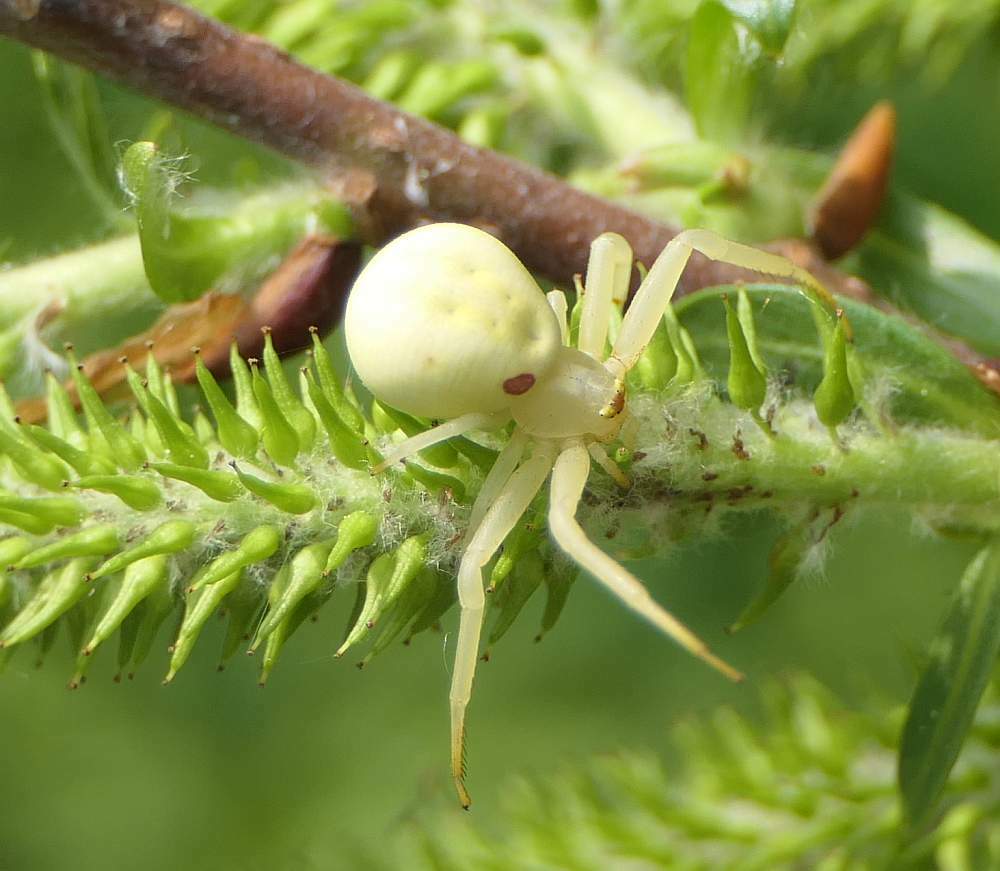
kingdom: Animalia
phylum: Arthropoda
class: Arachnida
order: Araneae
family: Thomisidae
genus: Misumena
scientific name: Misumena vatia
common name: Goldenrod crab spider
